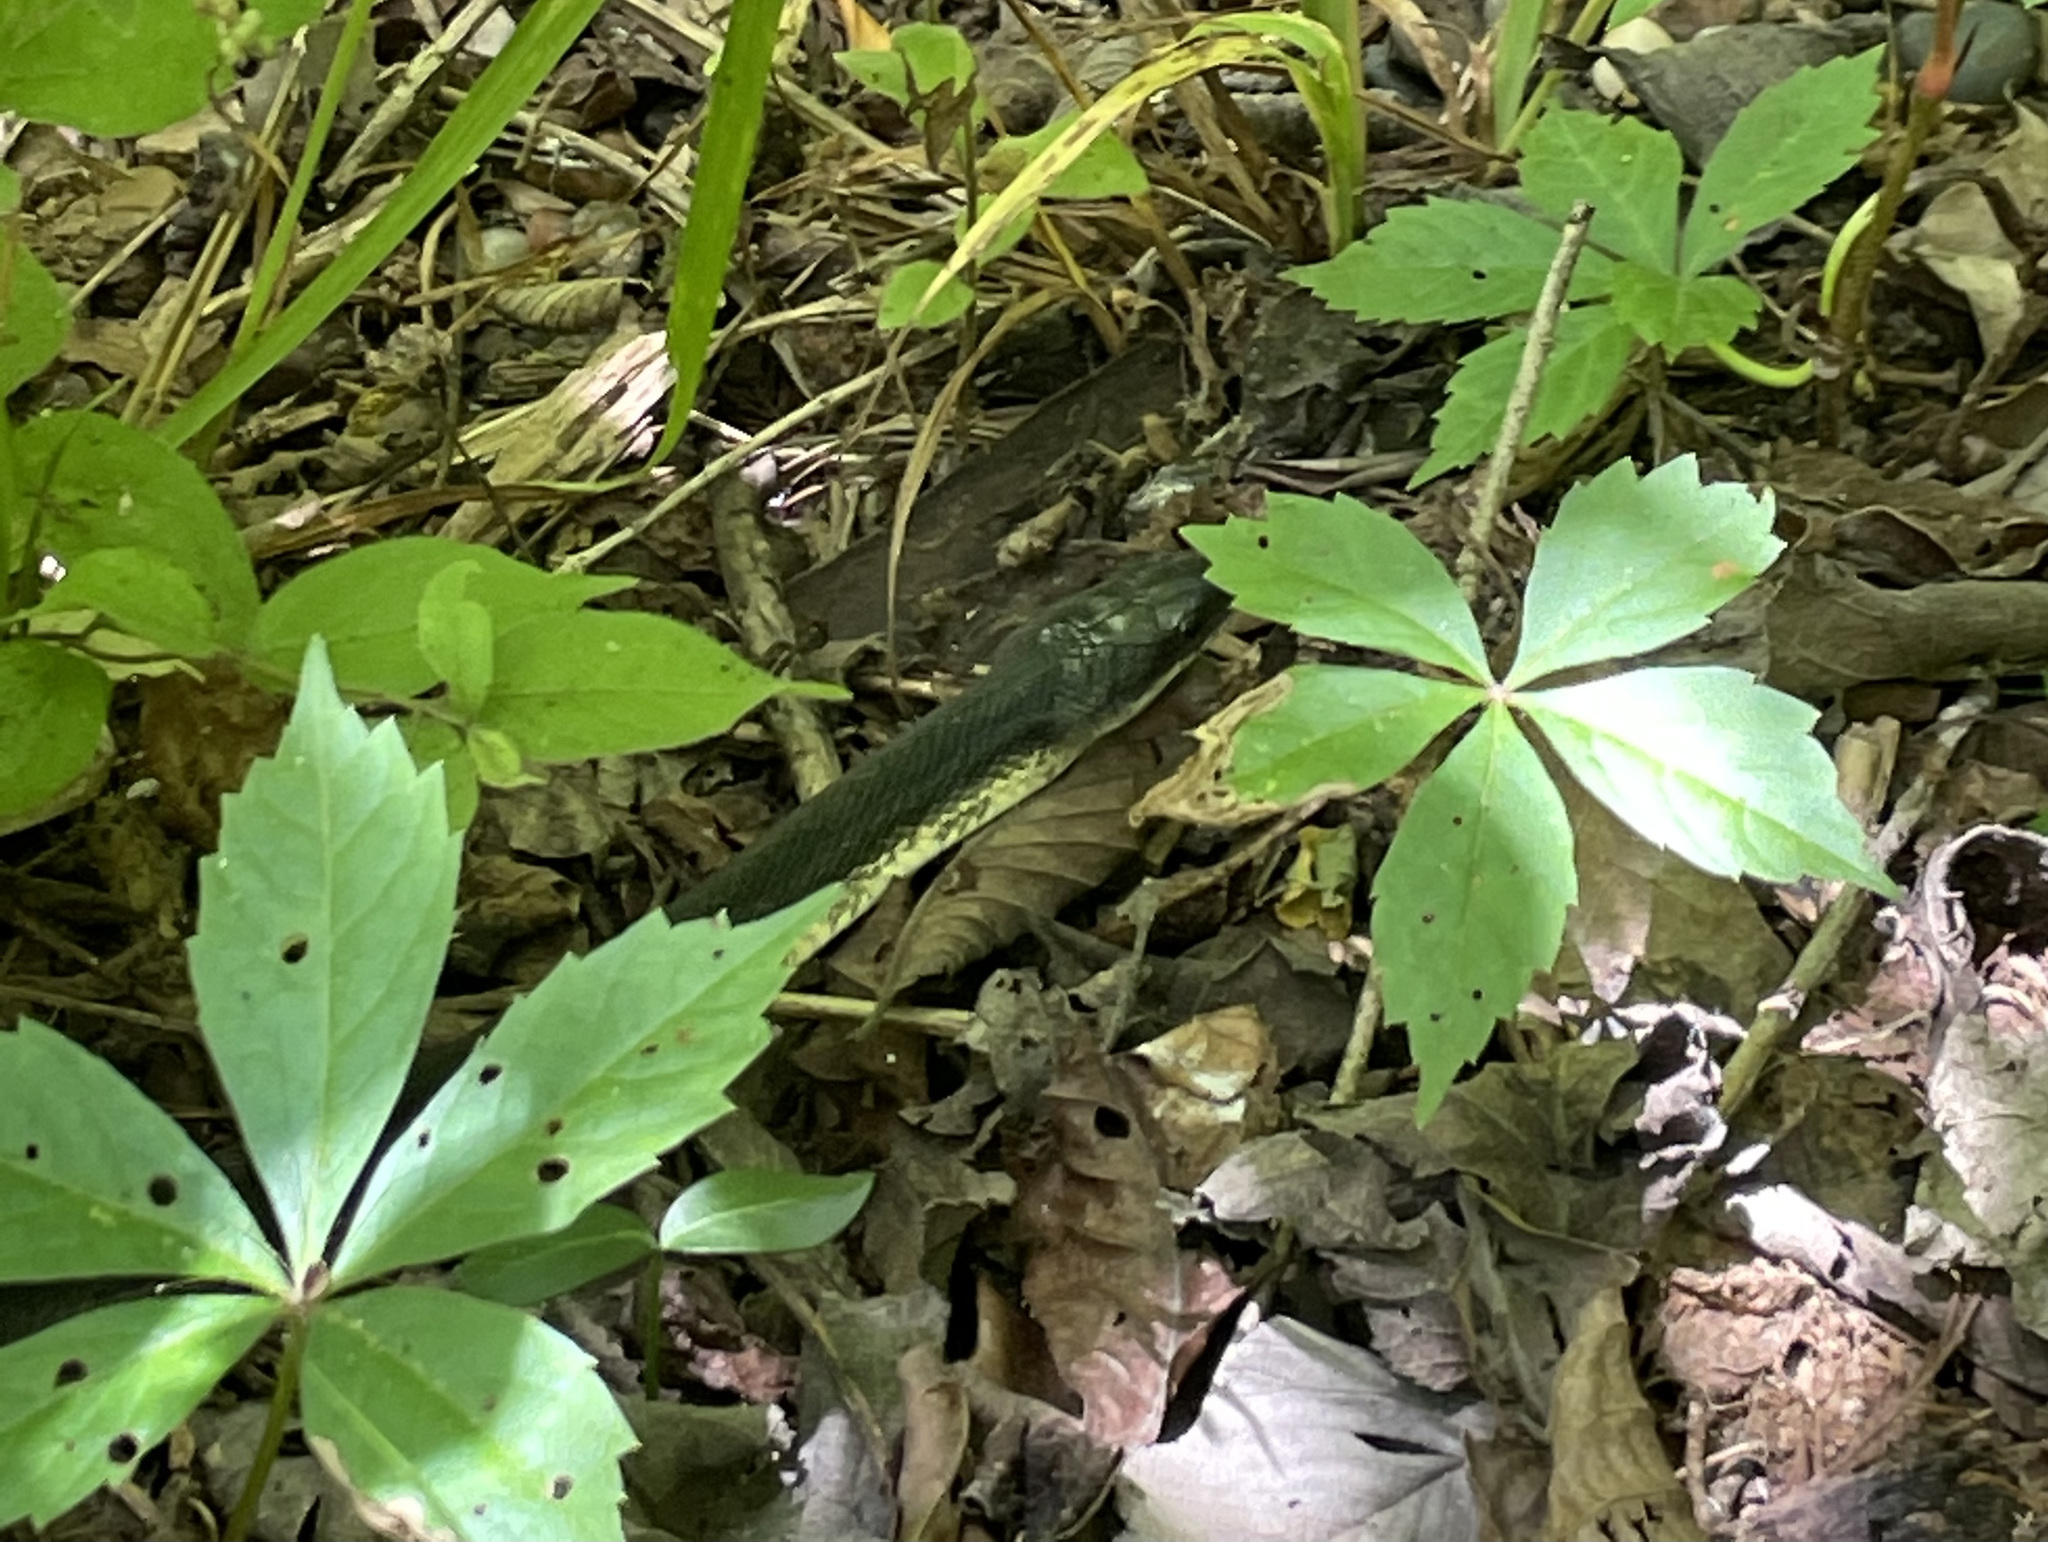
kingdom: Animalia
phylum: Chordata
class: Squamata
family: Colubridae
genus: Pantherophis
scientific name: Pantherophis obsoletus
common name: Black rat snake
